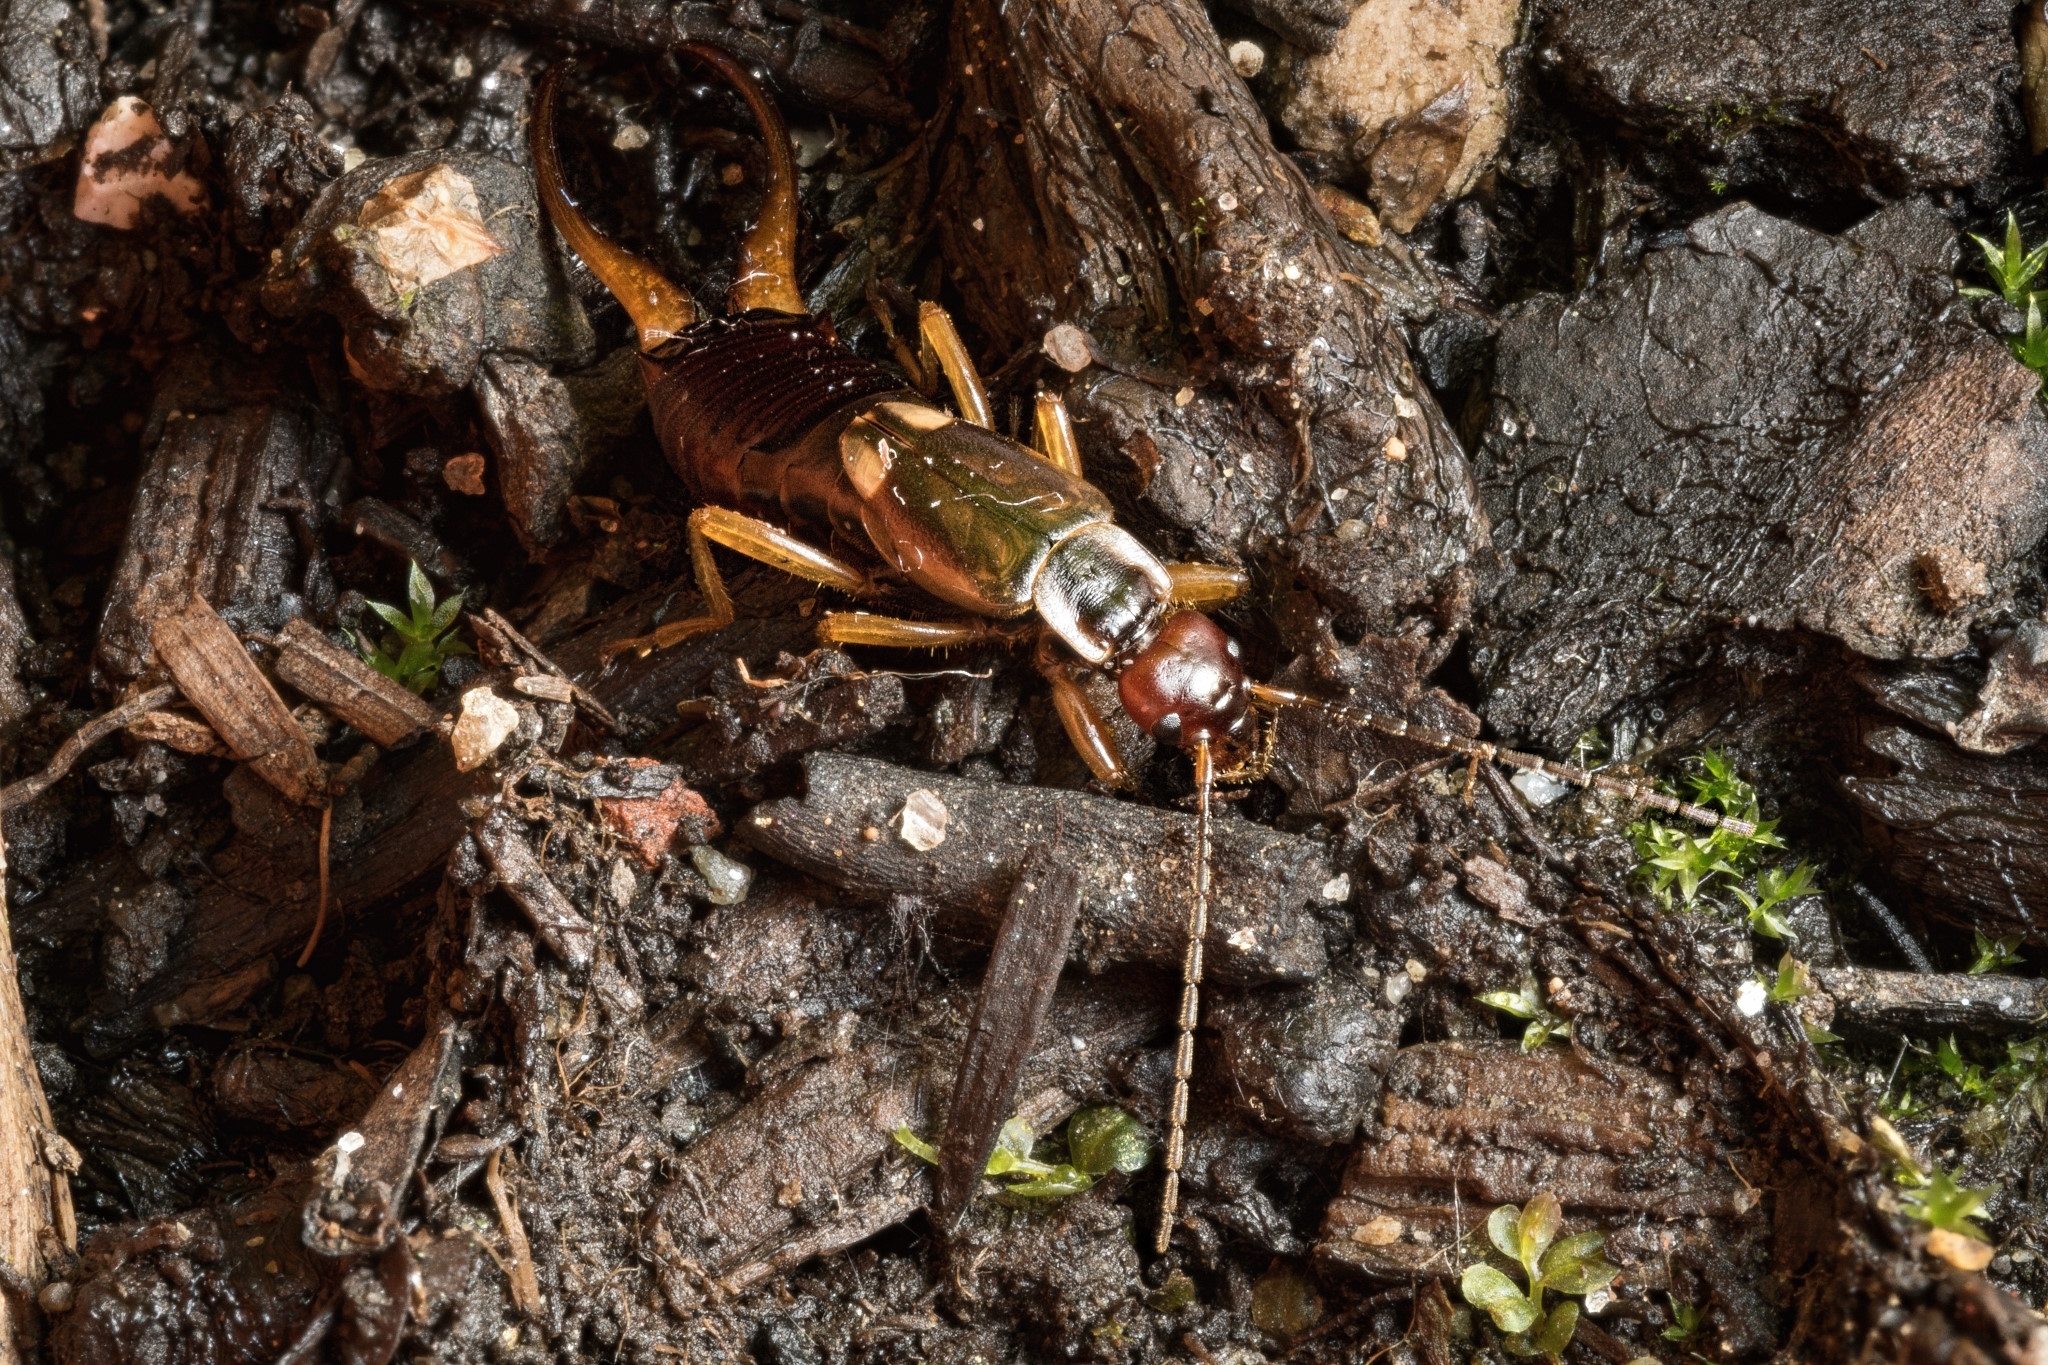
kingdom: Animalia
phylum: Arthropoda
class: Insecta
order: Dermaptera
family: Forficulidae
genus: Forficula
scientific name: Forficula
